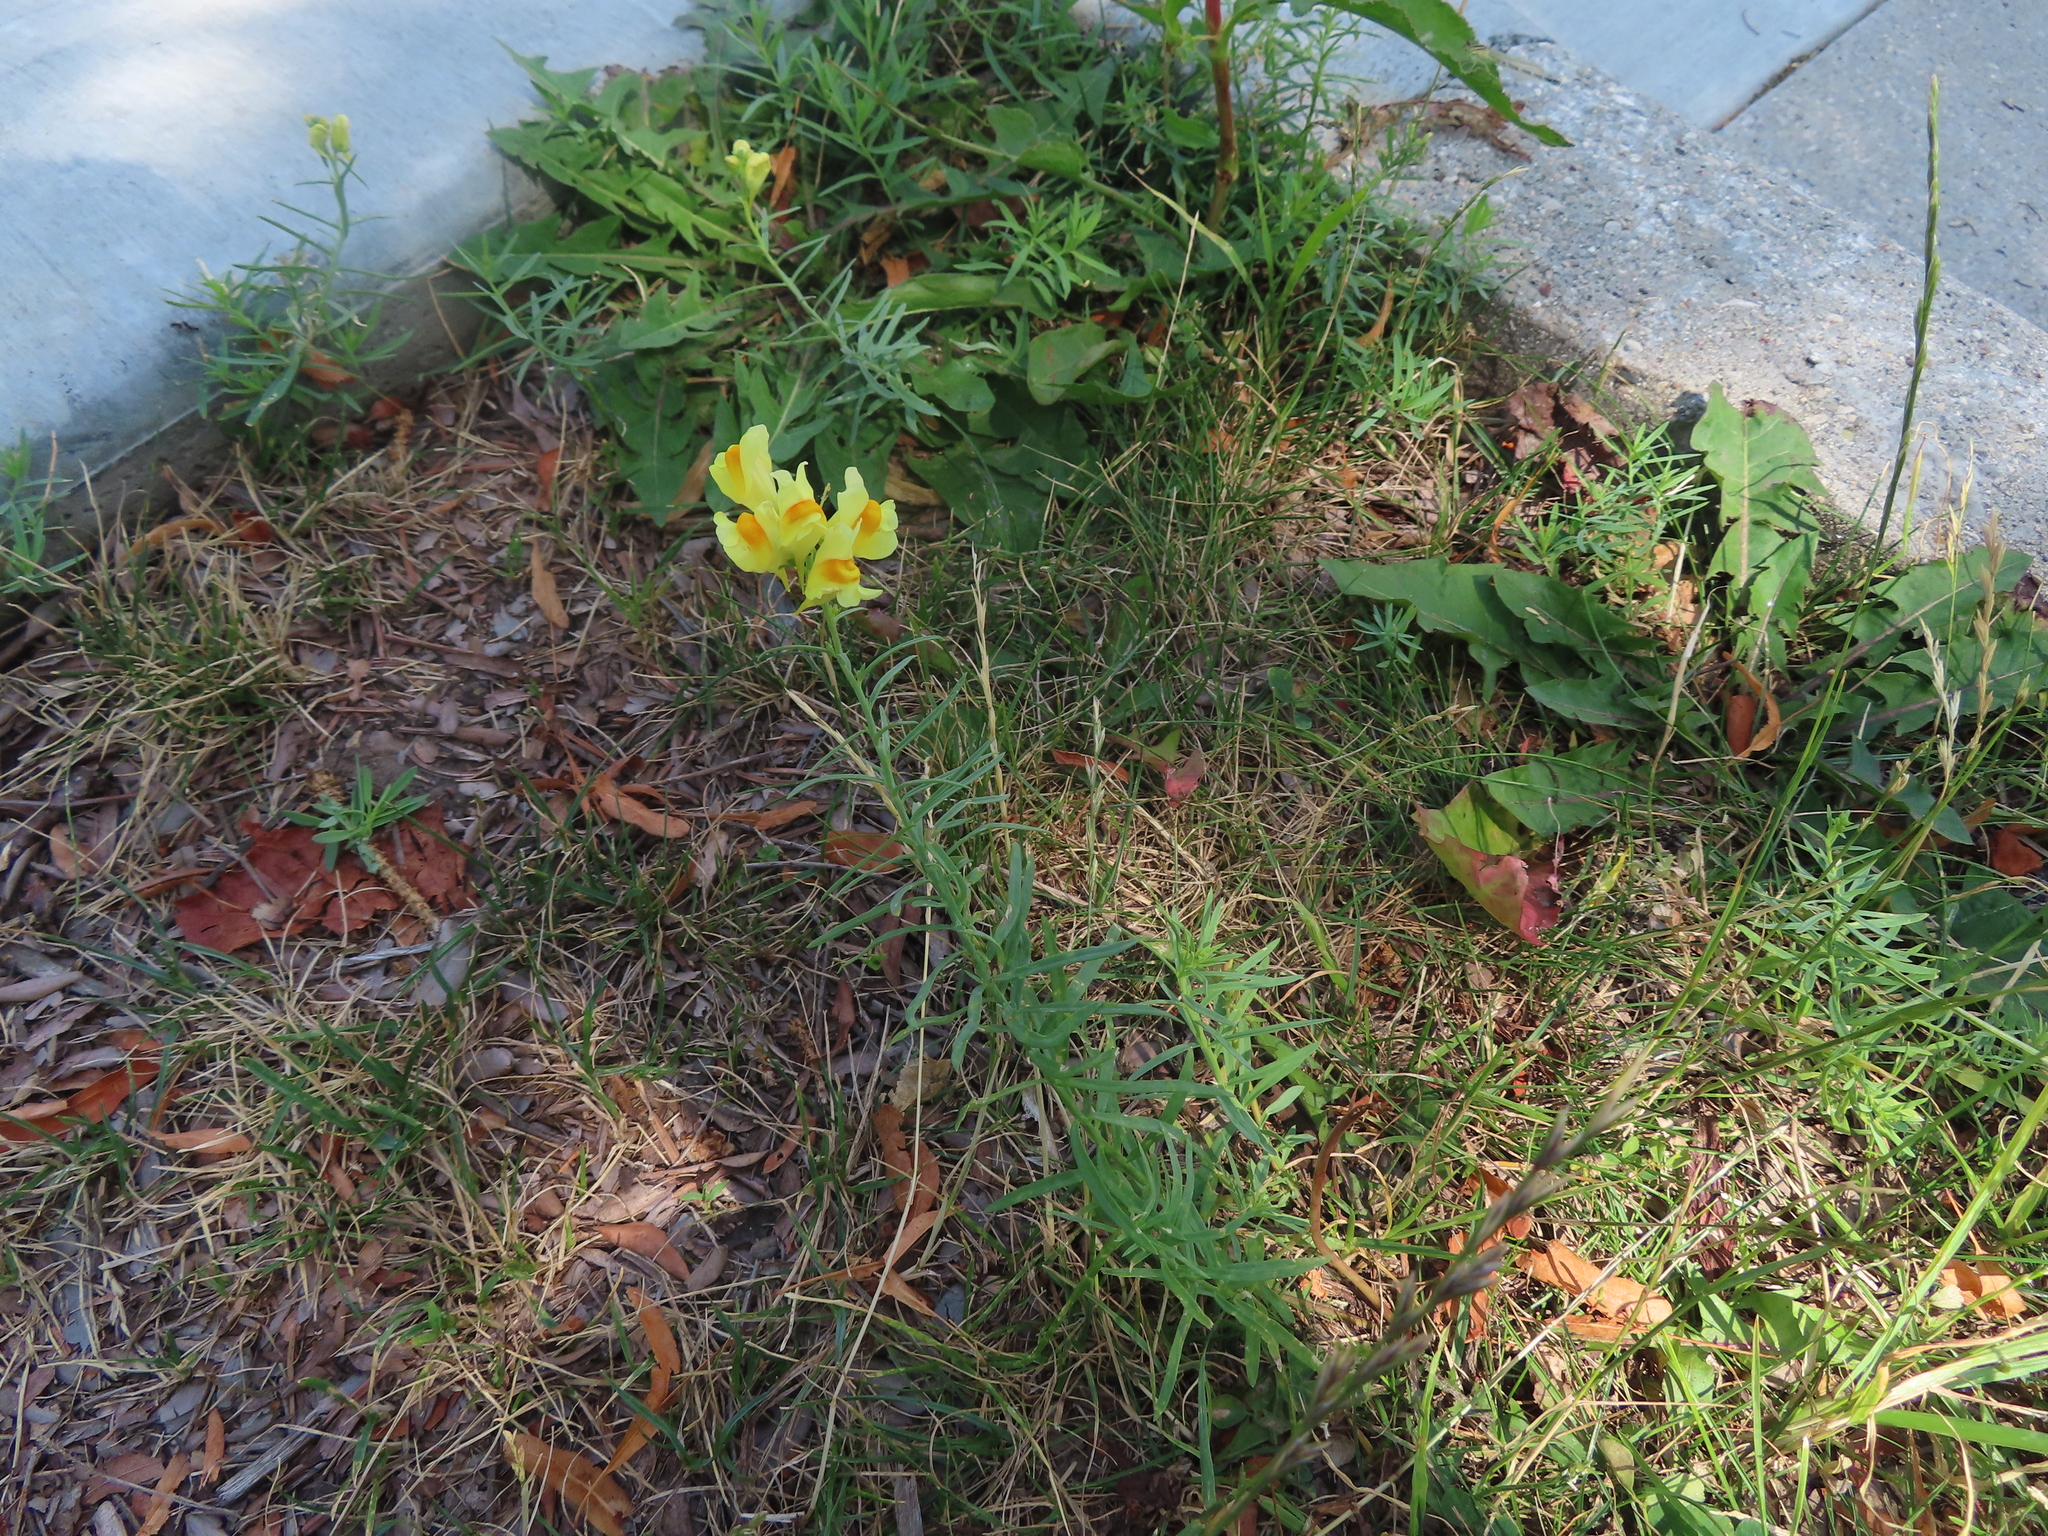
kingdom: Plantae
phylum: Tracheophyta
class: Magnoliopsida
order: Lamiales
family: Plantaginaceae
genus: Linaria
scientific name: Linaria vulgaris
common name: Butter and eggs
